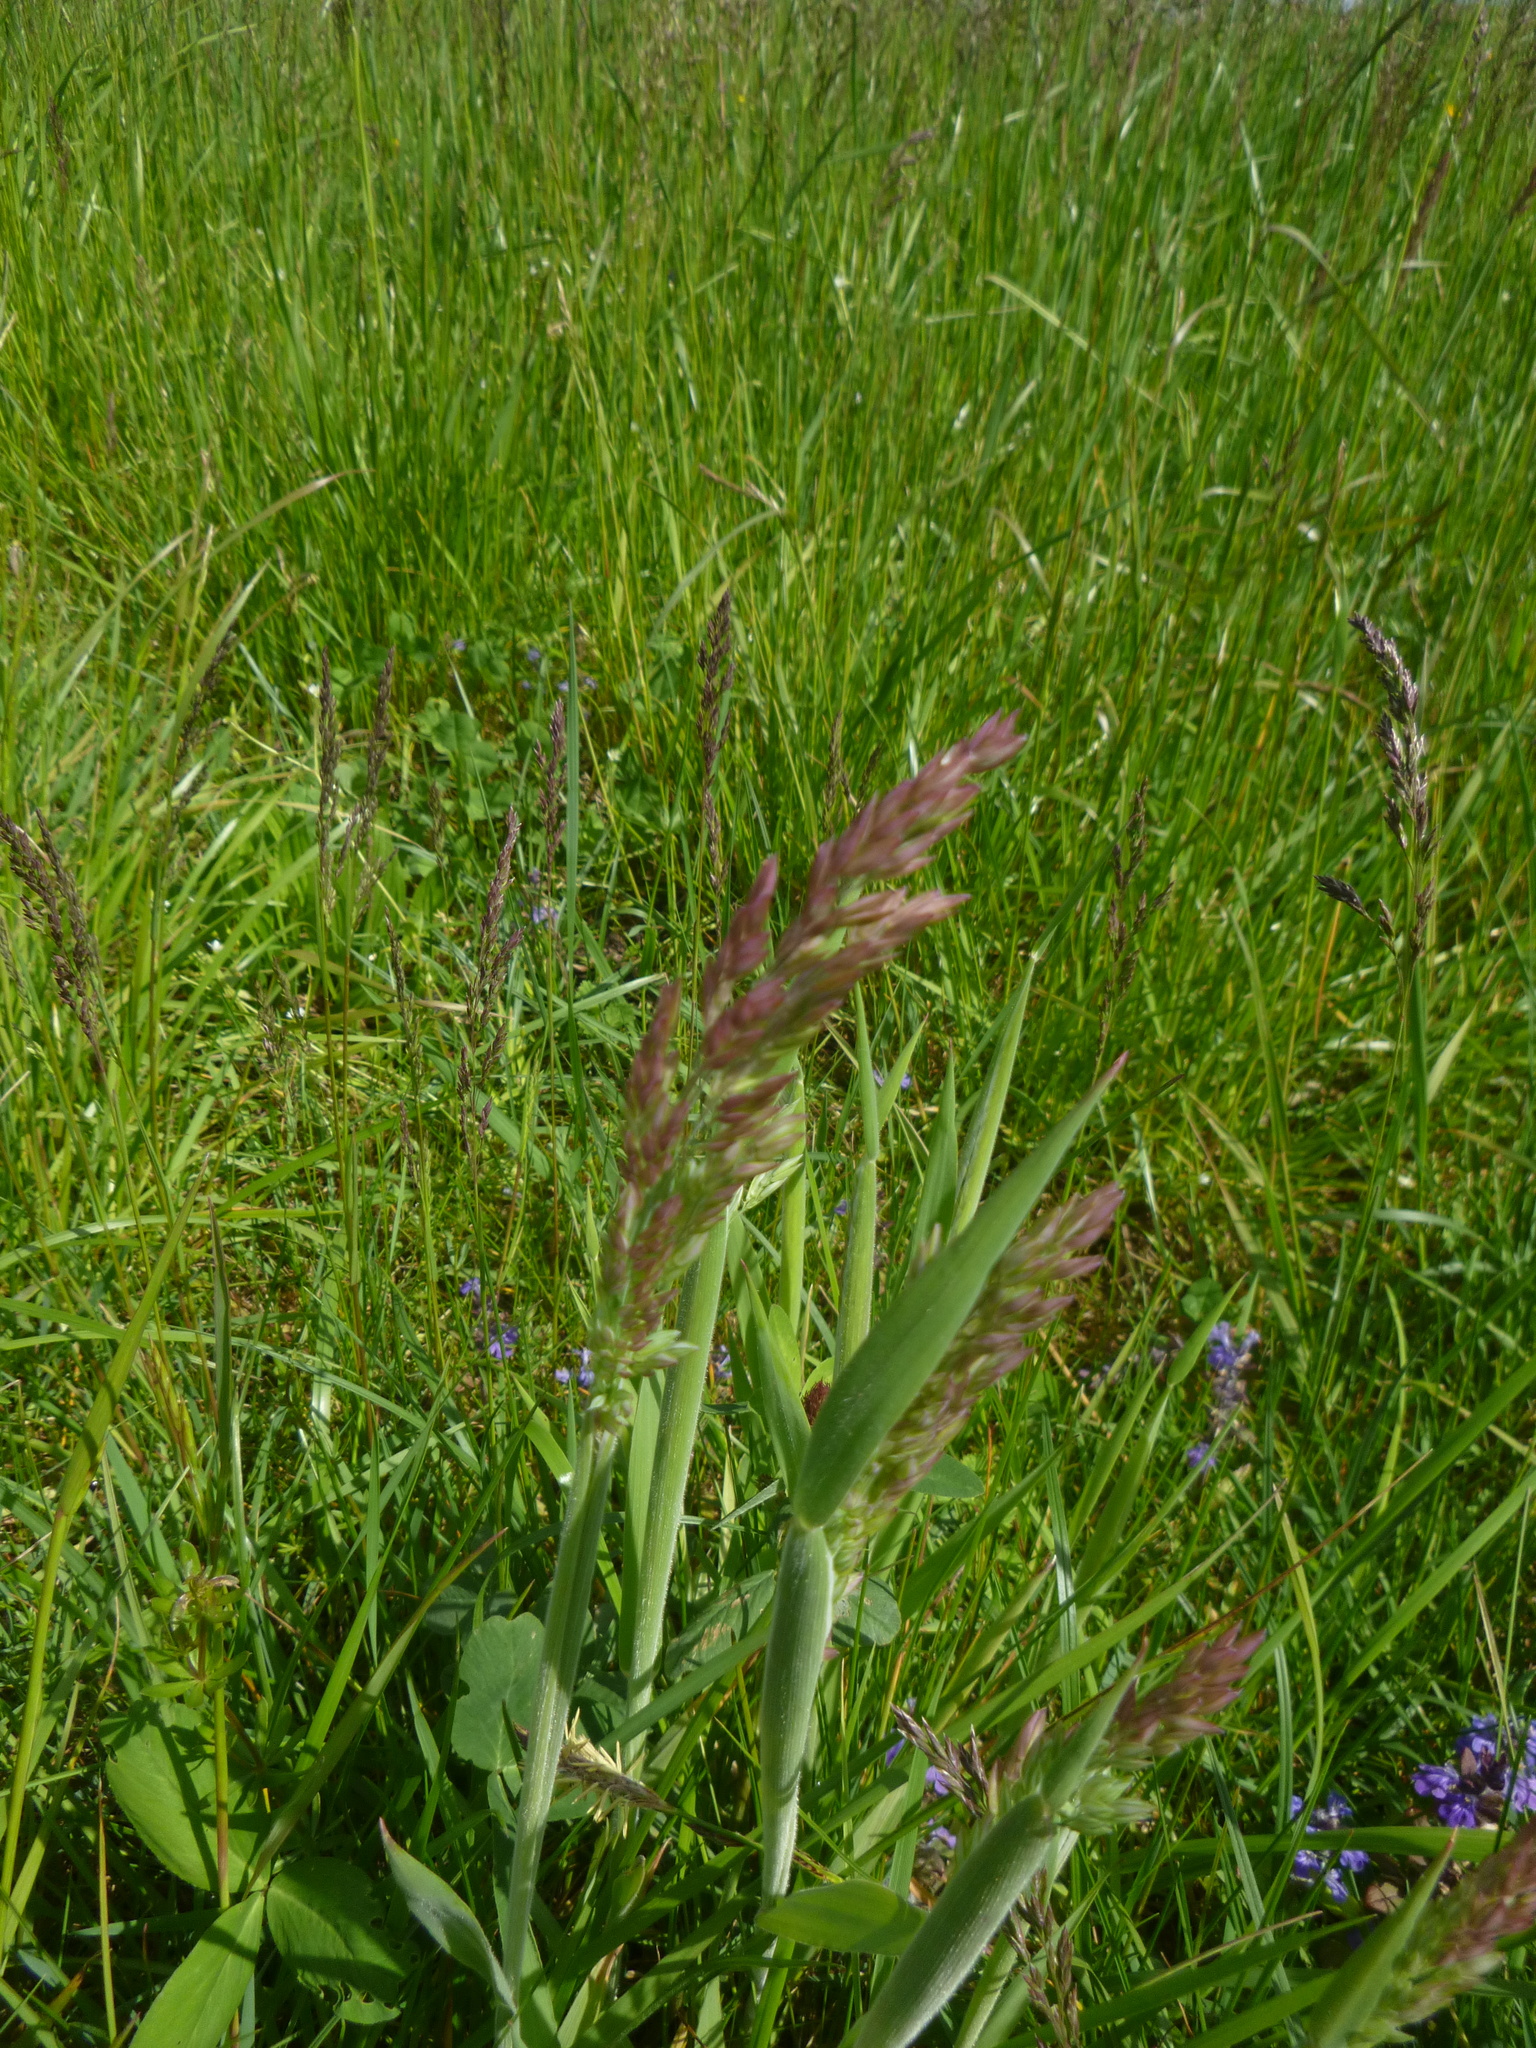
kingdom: Plantae
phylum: Tracheophyta
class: Liliopsida
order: Poales
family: Poaceae
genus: Holcus
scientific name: Holcus lanatus
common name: Yorkshire-fog
